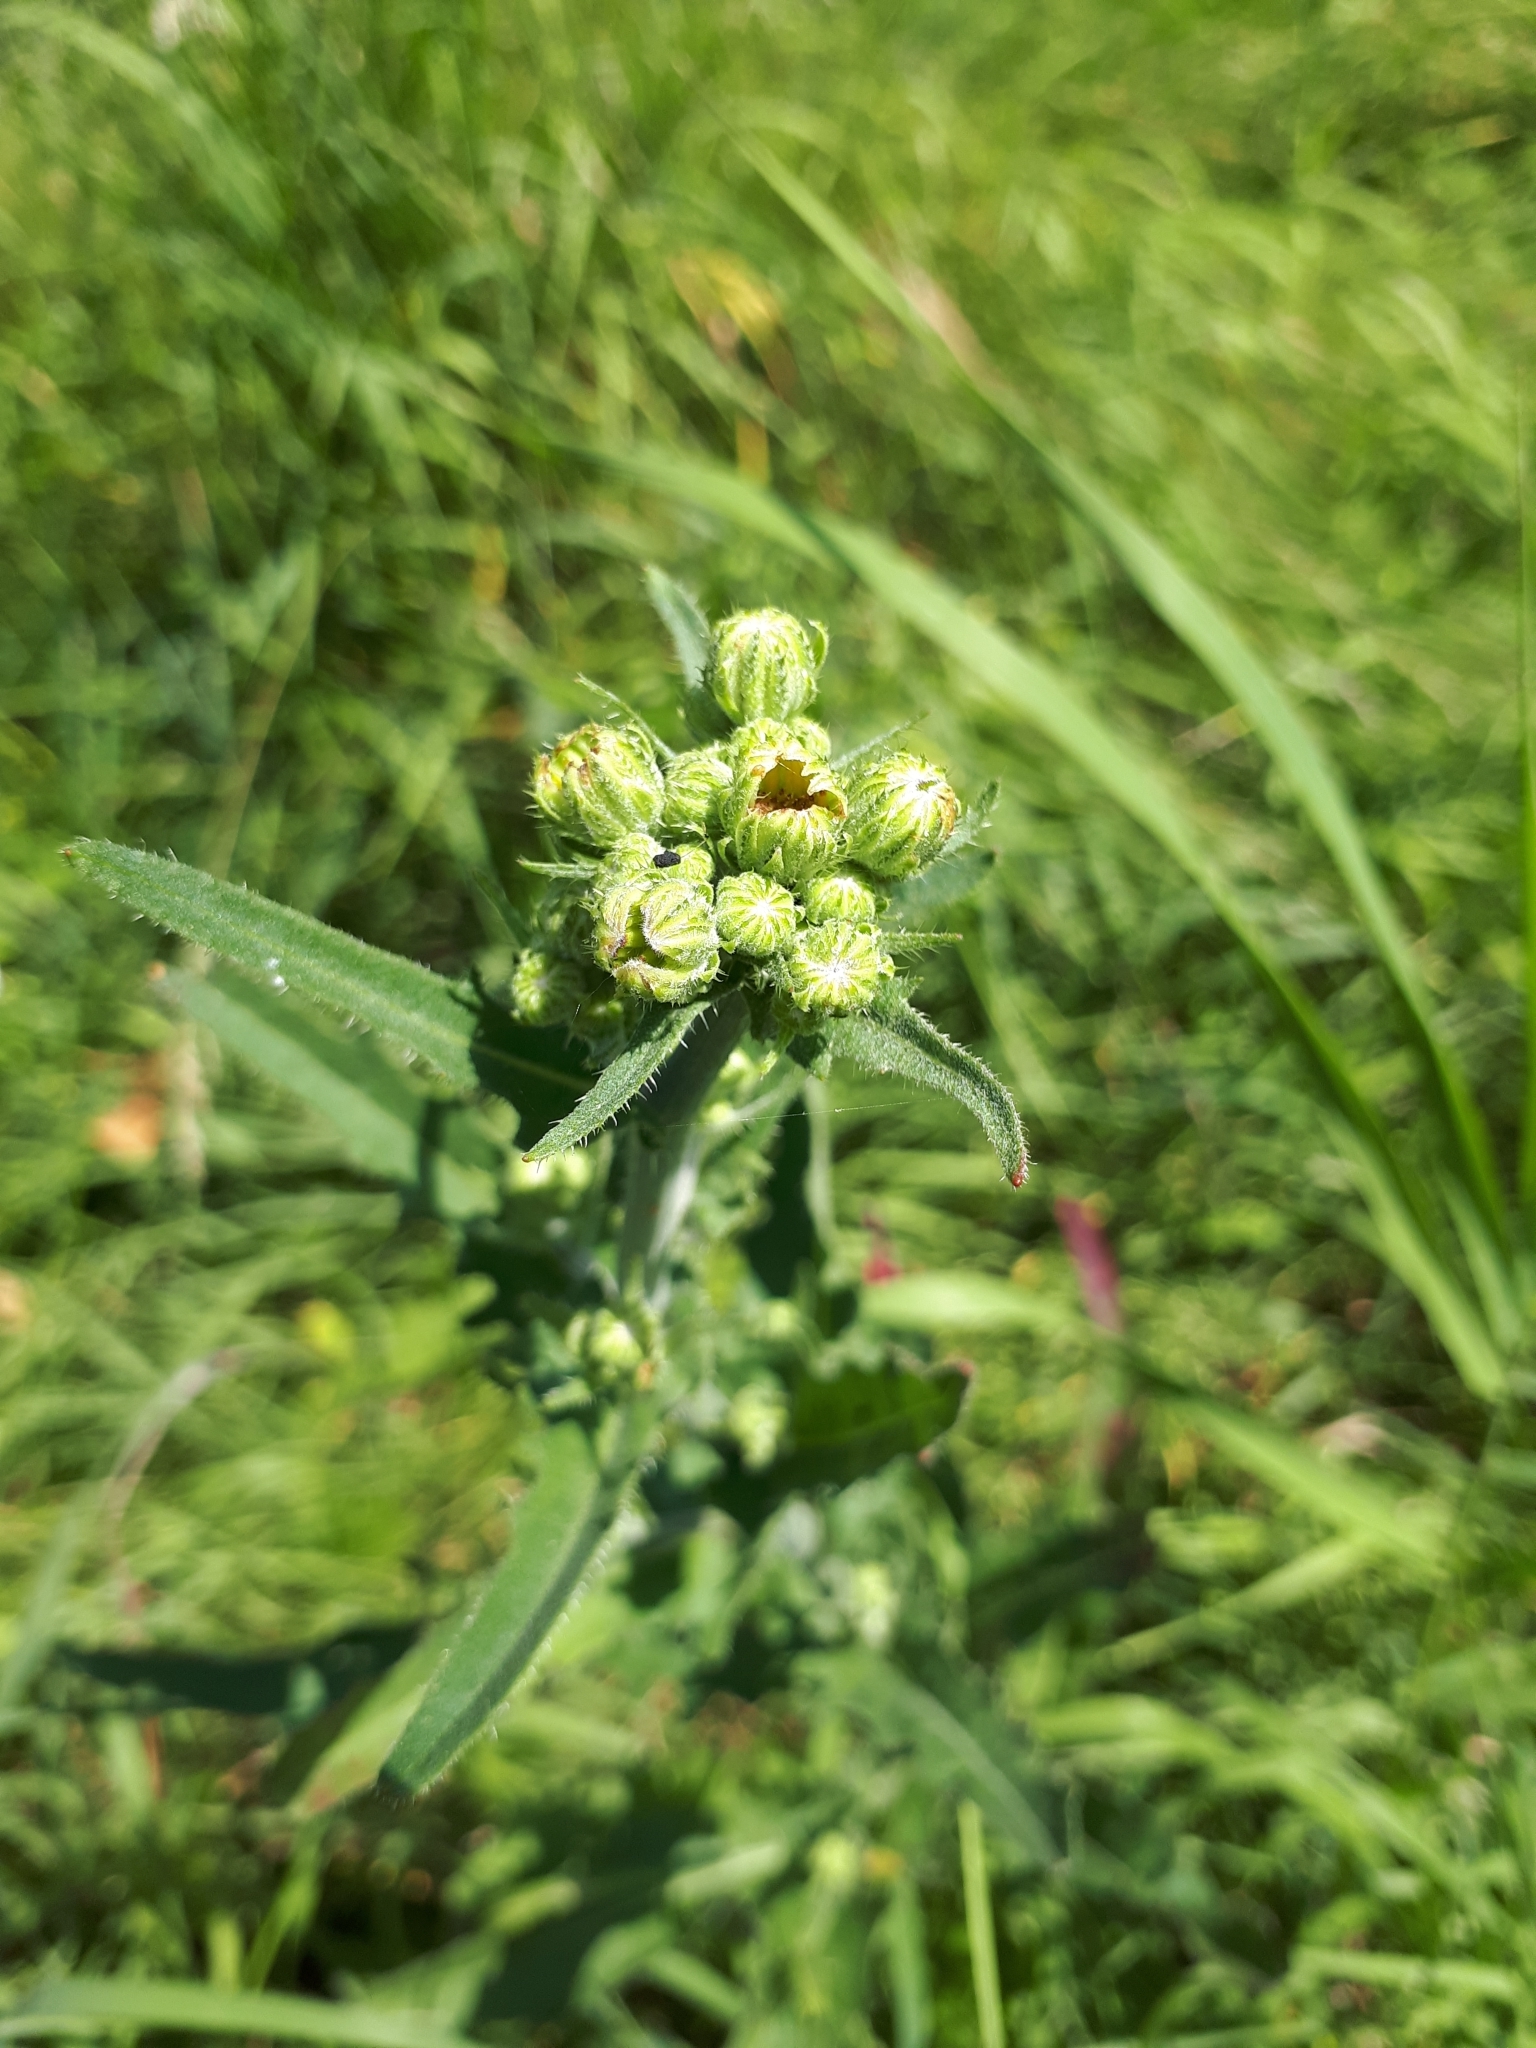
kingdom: Plantae
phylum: Tracheophyta
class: Magnoliopsida
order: Asterales
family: Asteraceae
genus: Picris
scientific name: Picris hieracioides
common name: Hawkweed oxtongue
